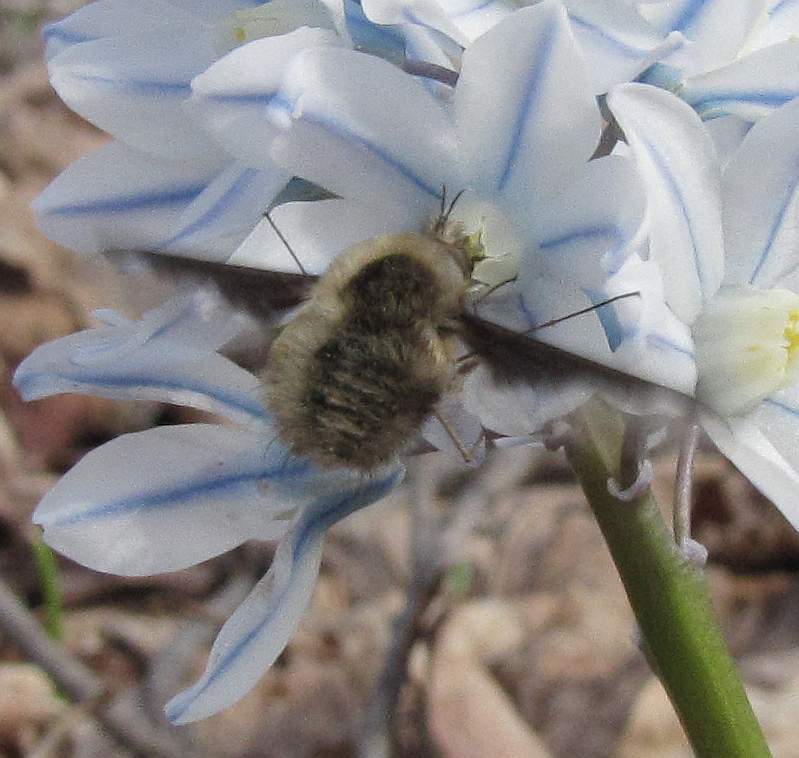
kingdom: Animalia
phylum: Arthropoda
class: Insecta
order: Diptera
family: Bombyliidae
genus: Bombylius
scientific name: Bombylius major
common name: Bee fly
